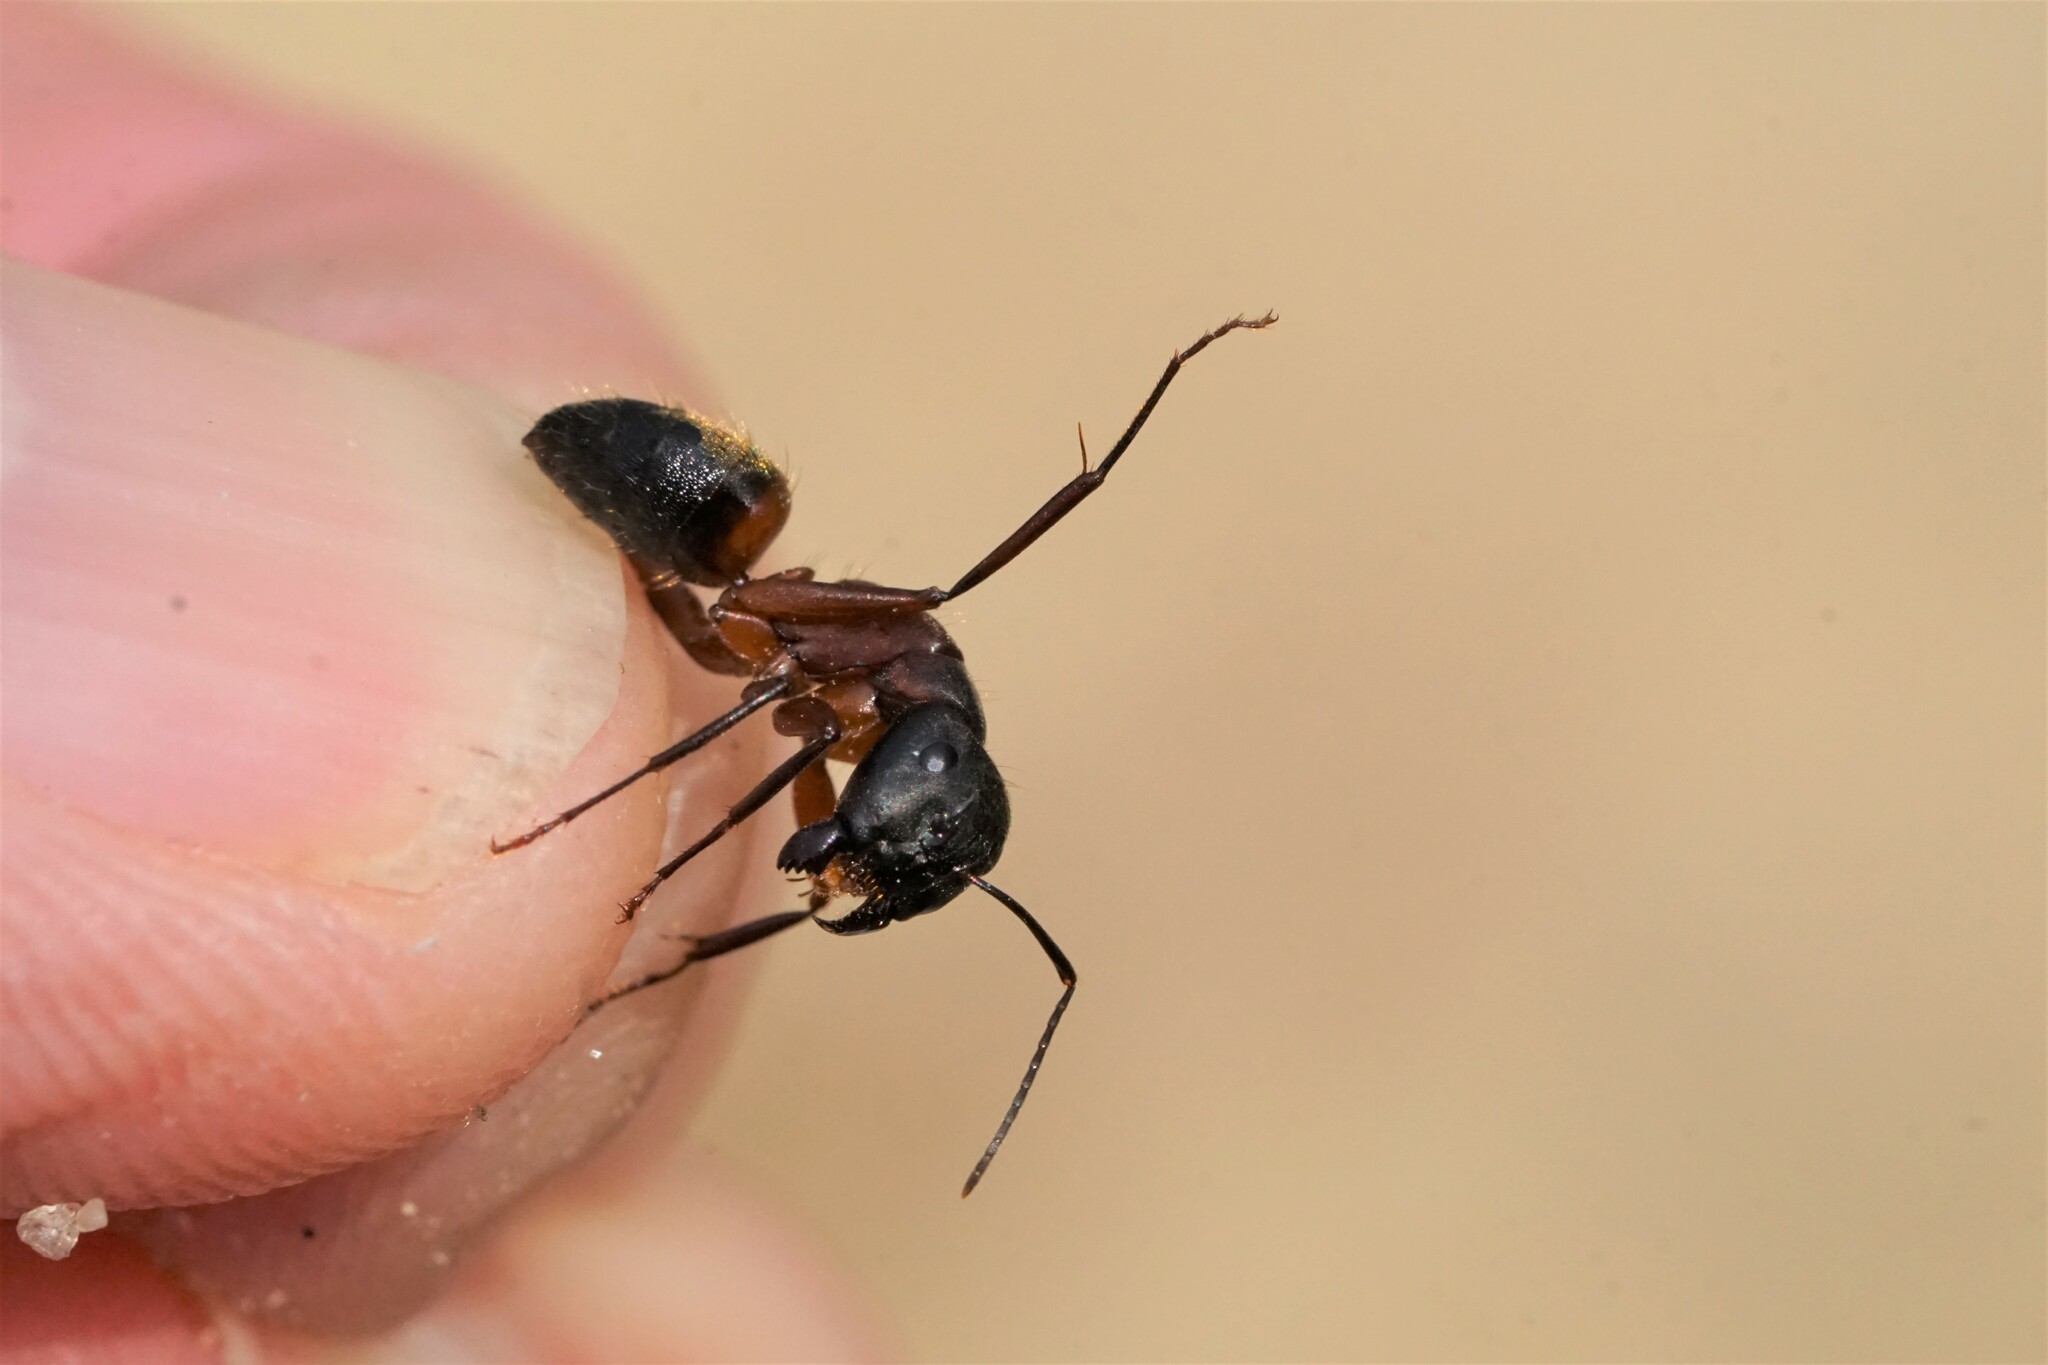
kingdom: Animalia
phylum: Arthropoda
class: Insecta
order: Hymenoptera
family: Formicidae
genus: Camponotus
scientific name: Camponotus chromaiodes
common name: Red carpenter ant
